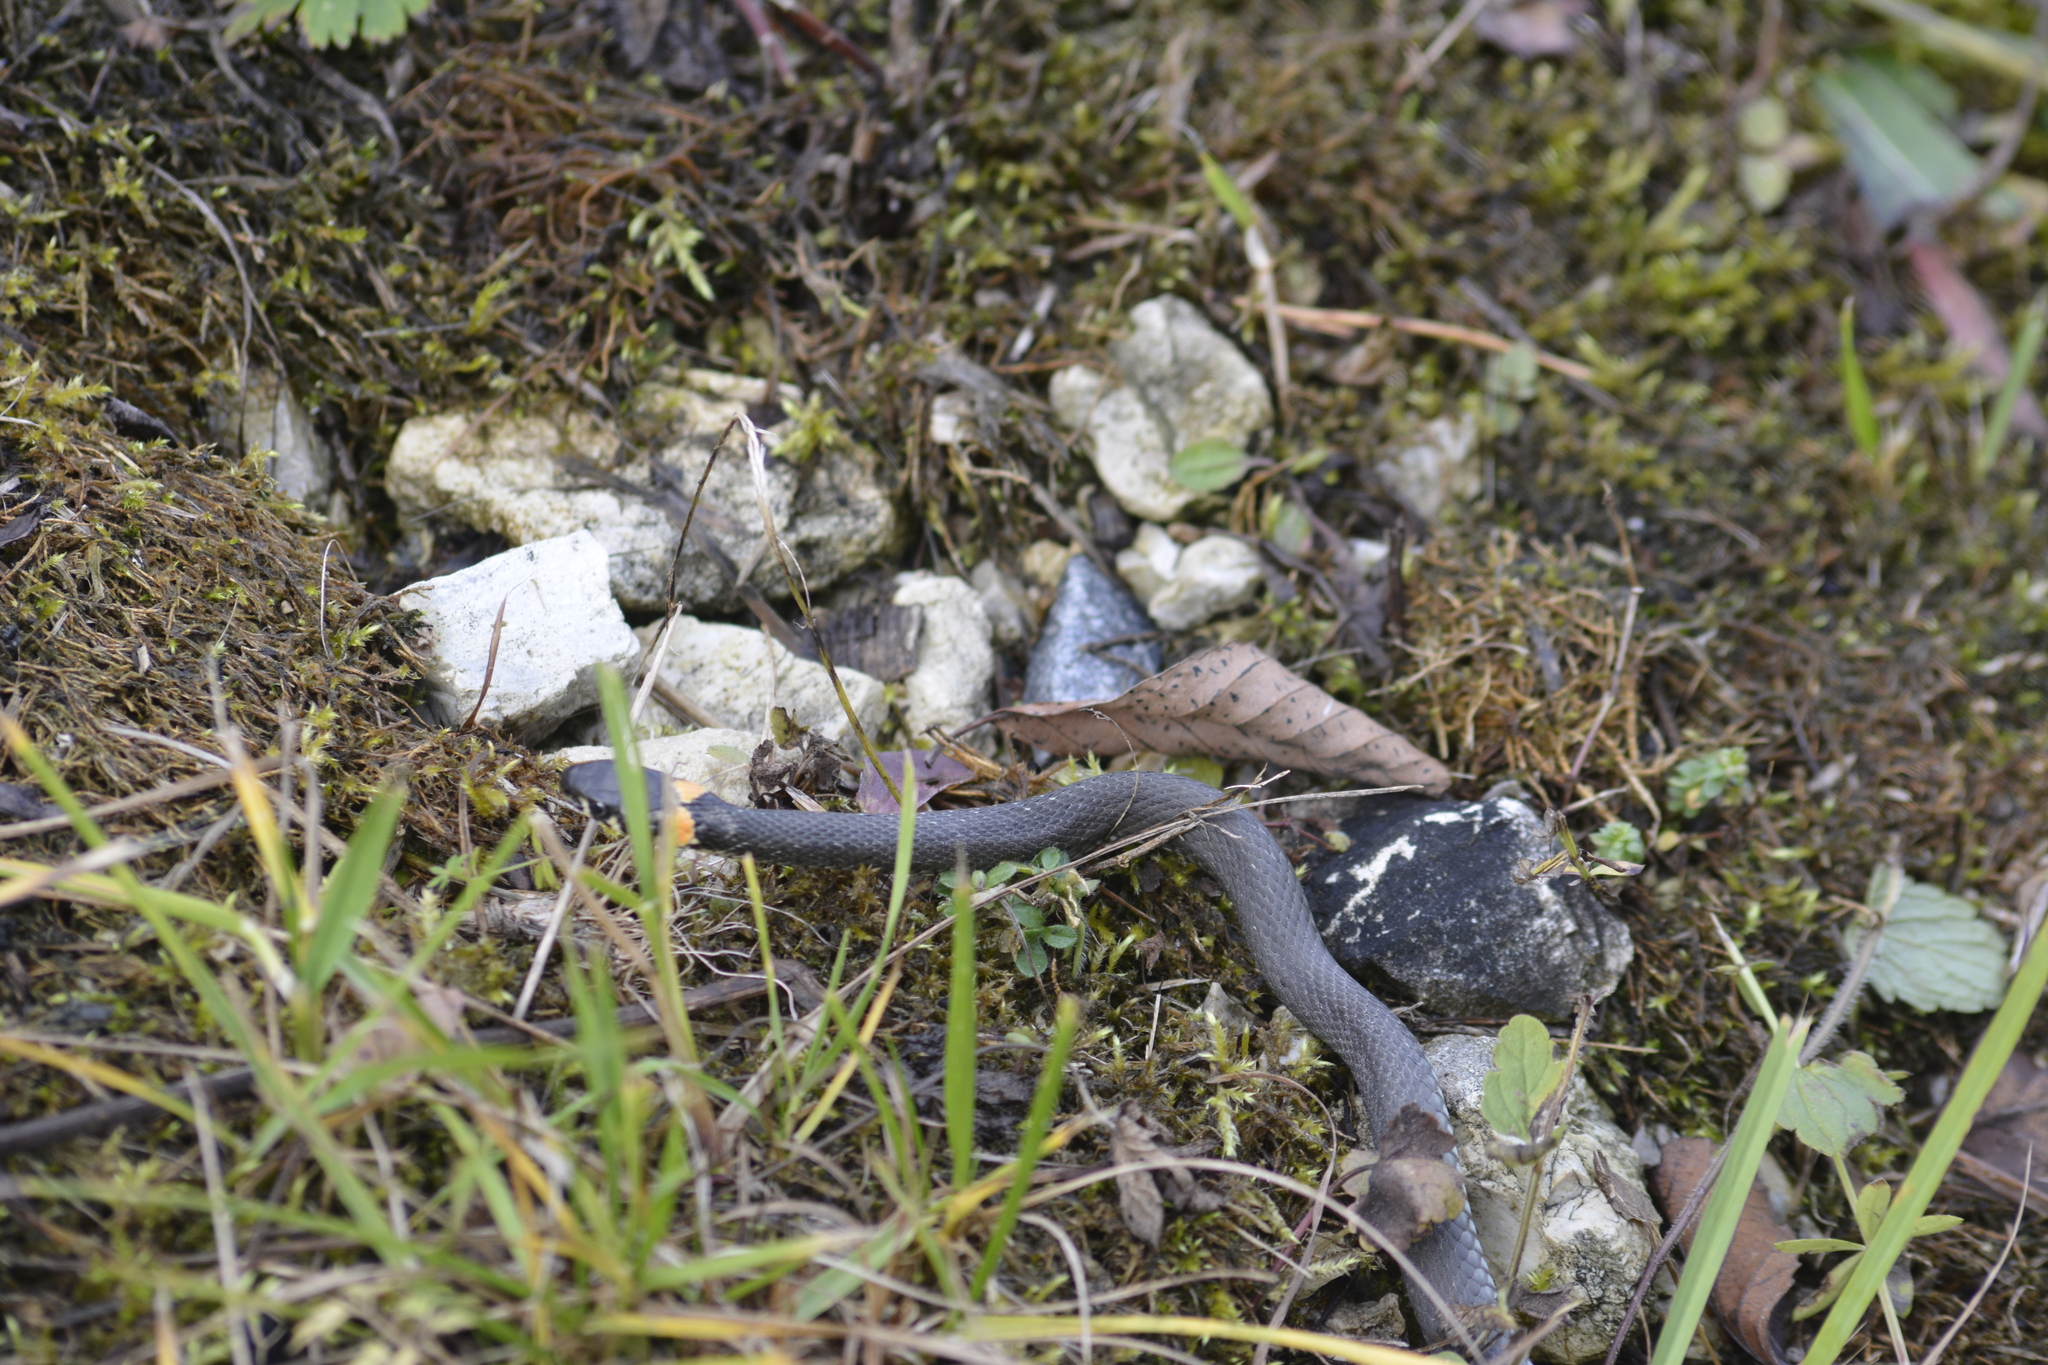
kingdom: Animalia
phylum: Chordata
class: Squamata
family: Colubridae
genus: Natrix
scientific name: Natrix natrix
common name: Grass snake
